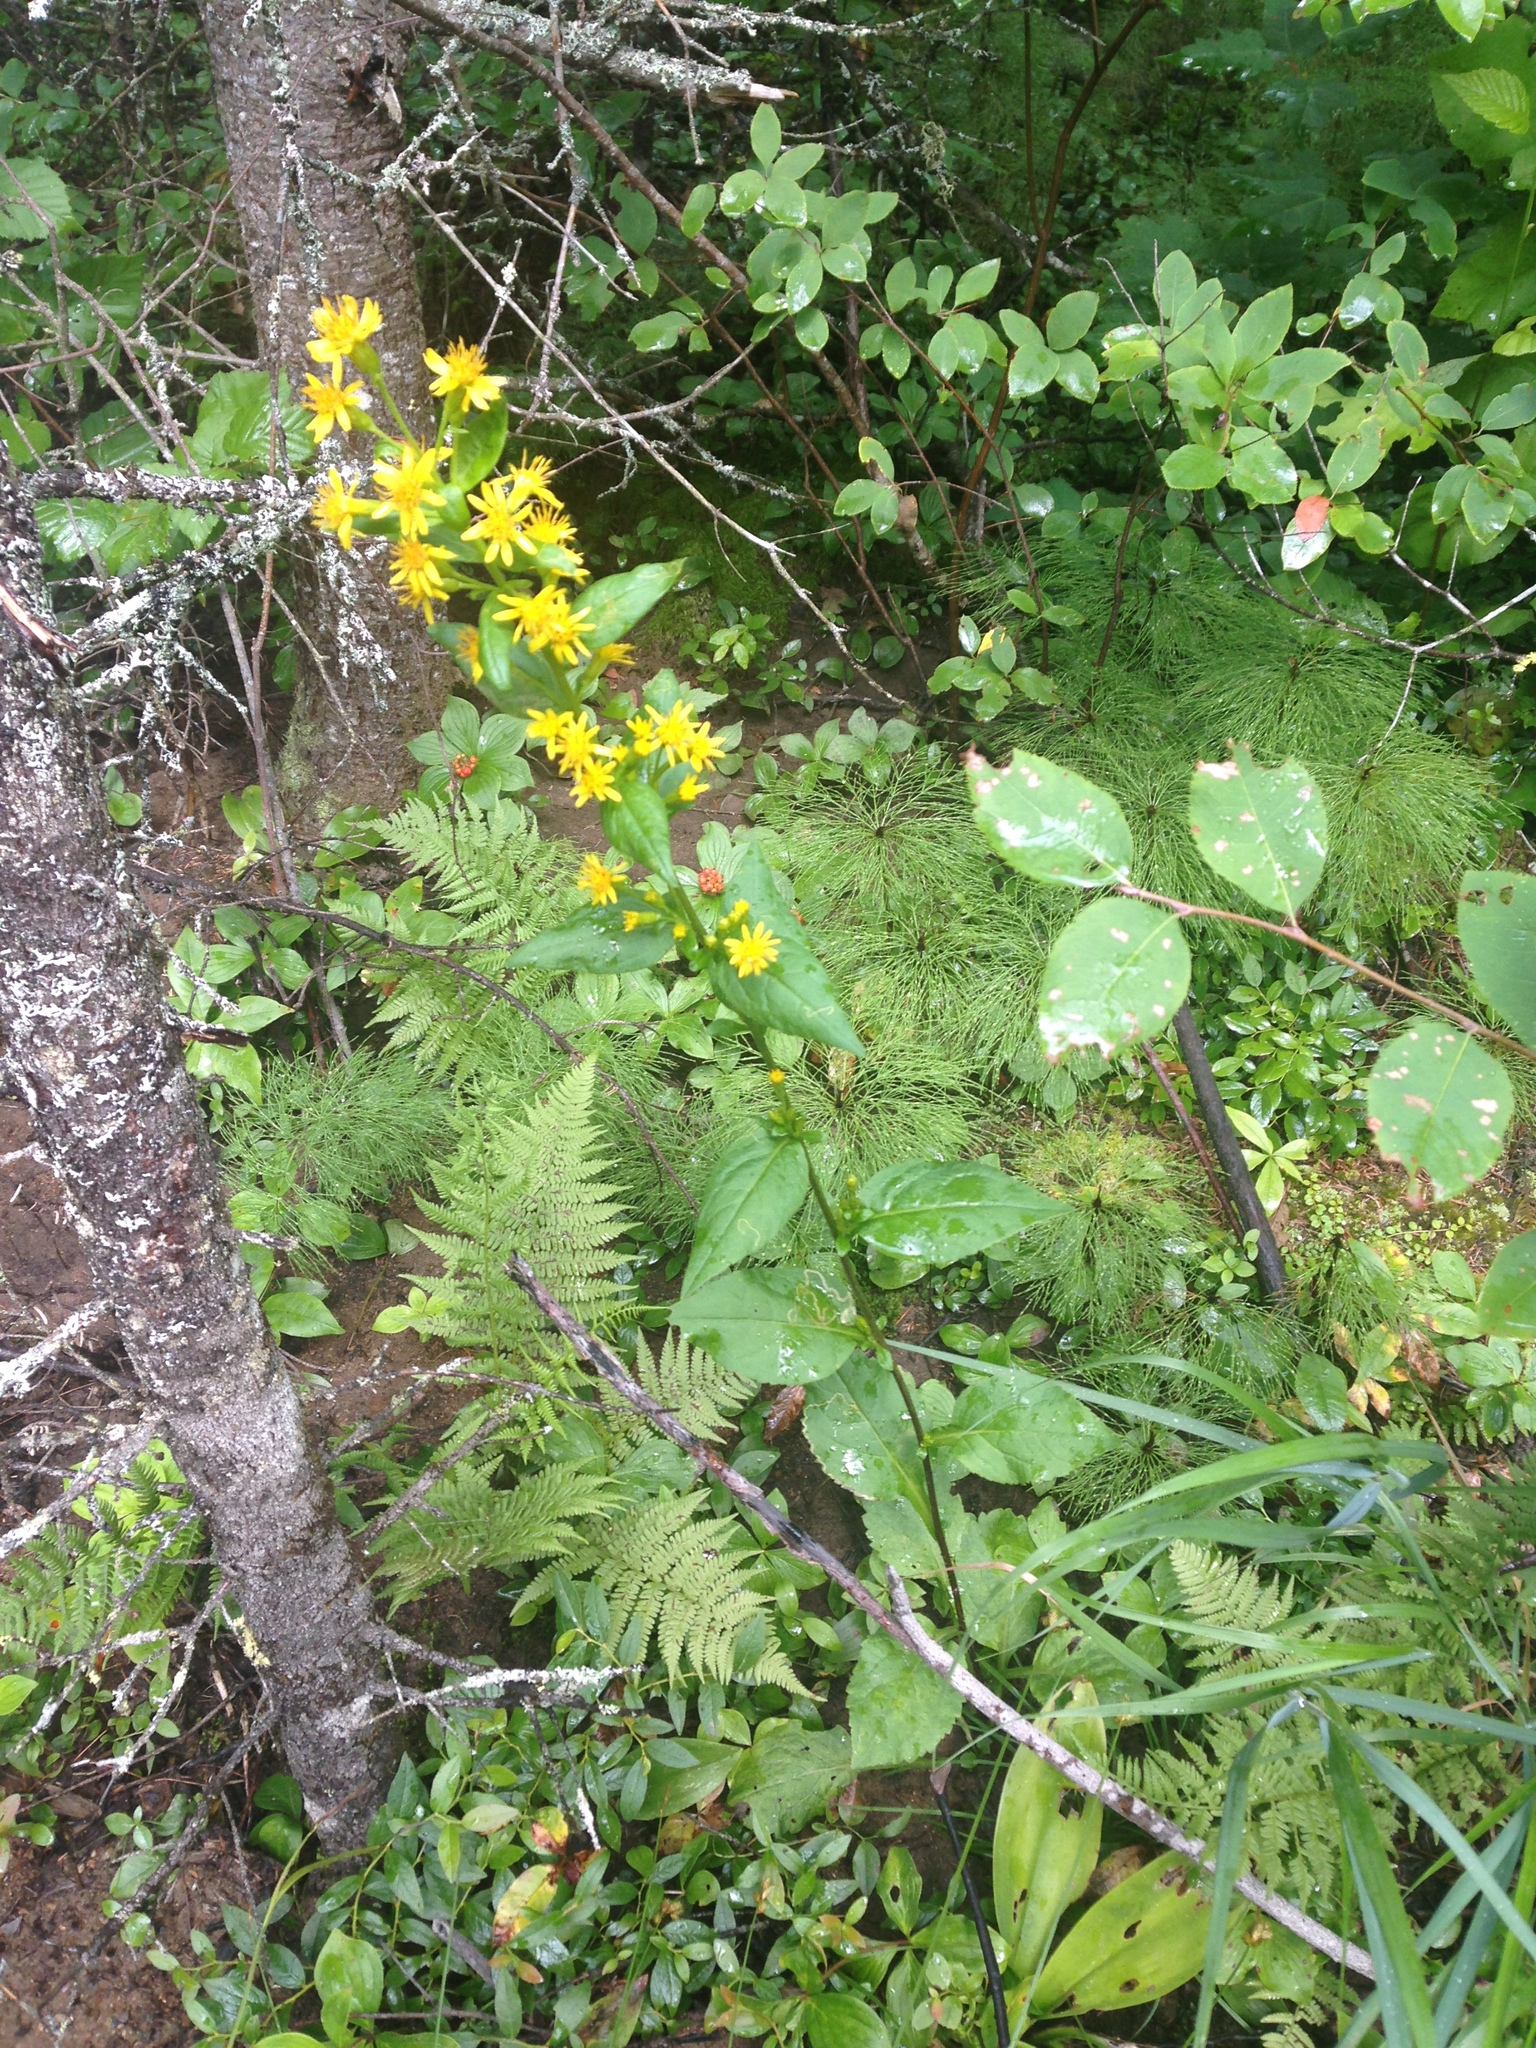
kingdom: Plantae
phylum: Tracheophyta
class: Magnoliopsida
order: Asterales
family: Asteraceae
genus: Solidago
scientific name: Solidago macrophylla
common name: Large-leaved goldenrod
